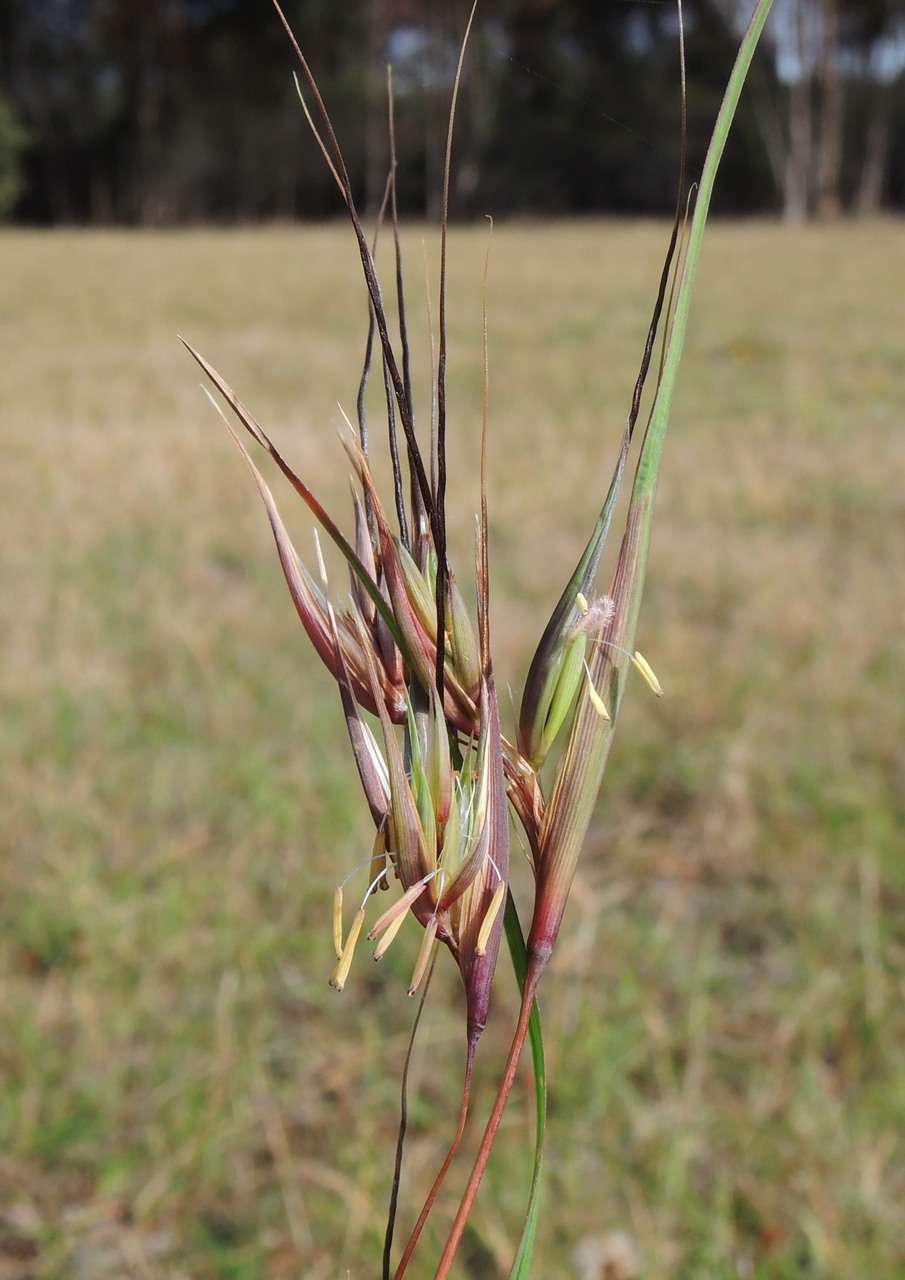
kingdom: Plantae
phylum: Tracheophyta
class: Liliopsida
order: Poales
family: Poaceae
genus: Themeda
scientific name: Themeda triandra
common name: Kangaroo grass
